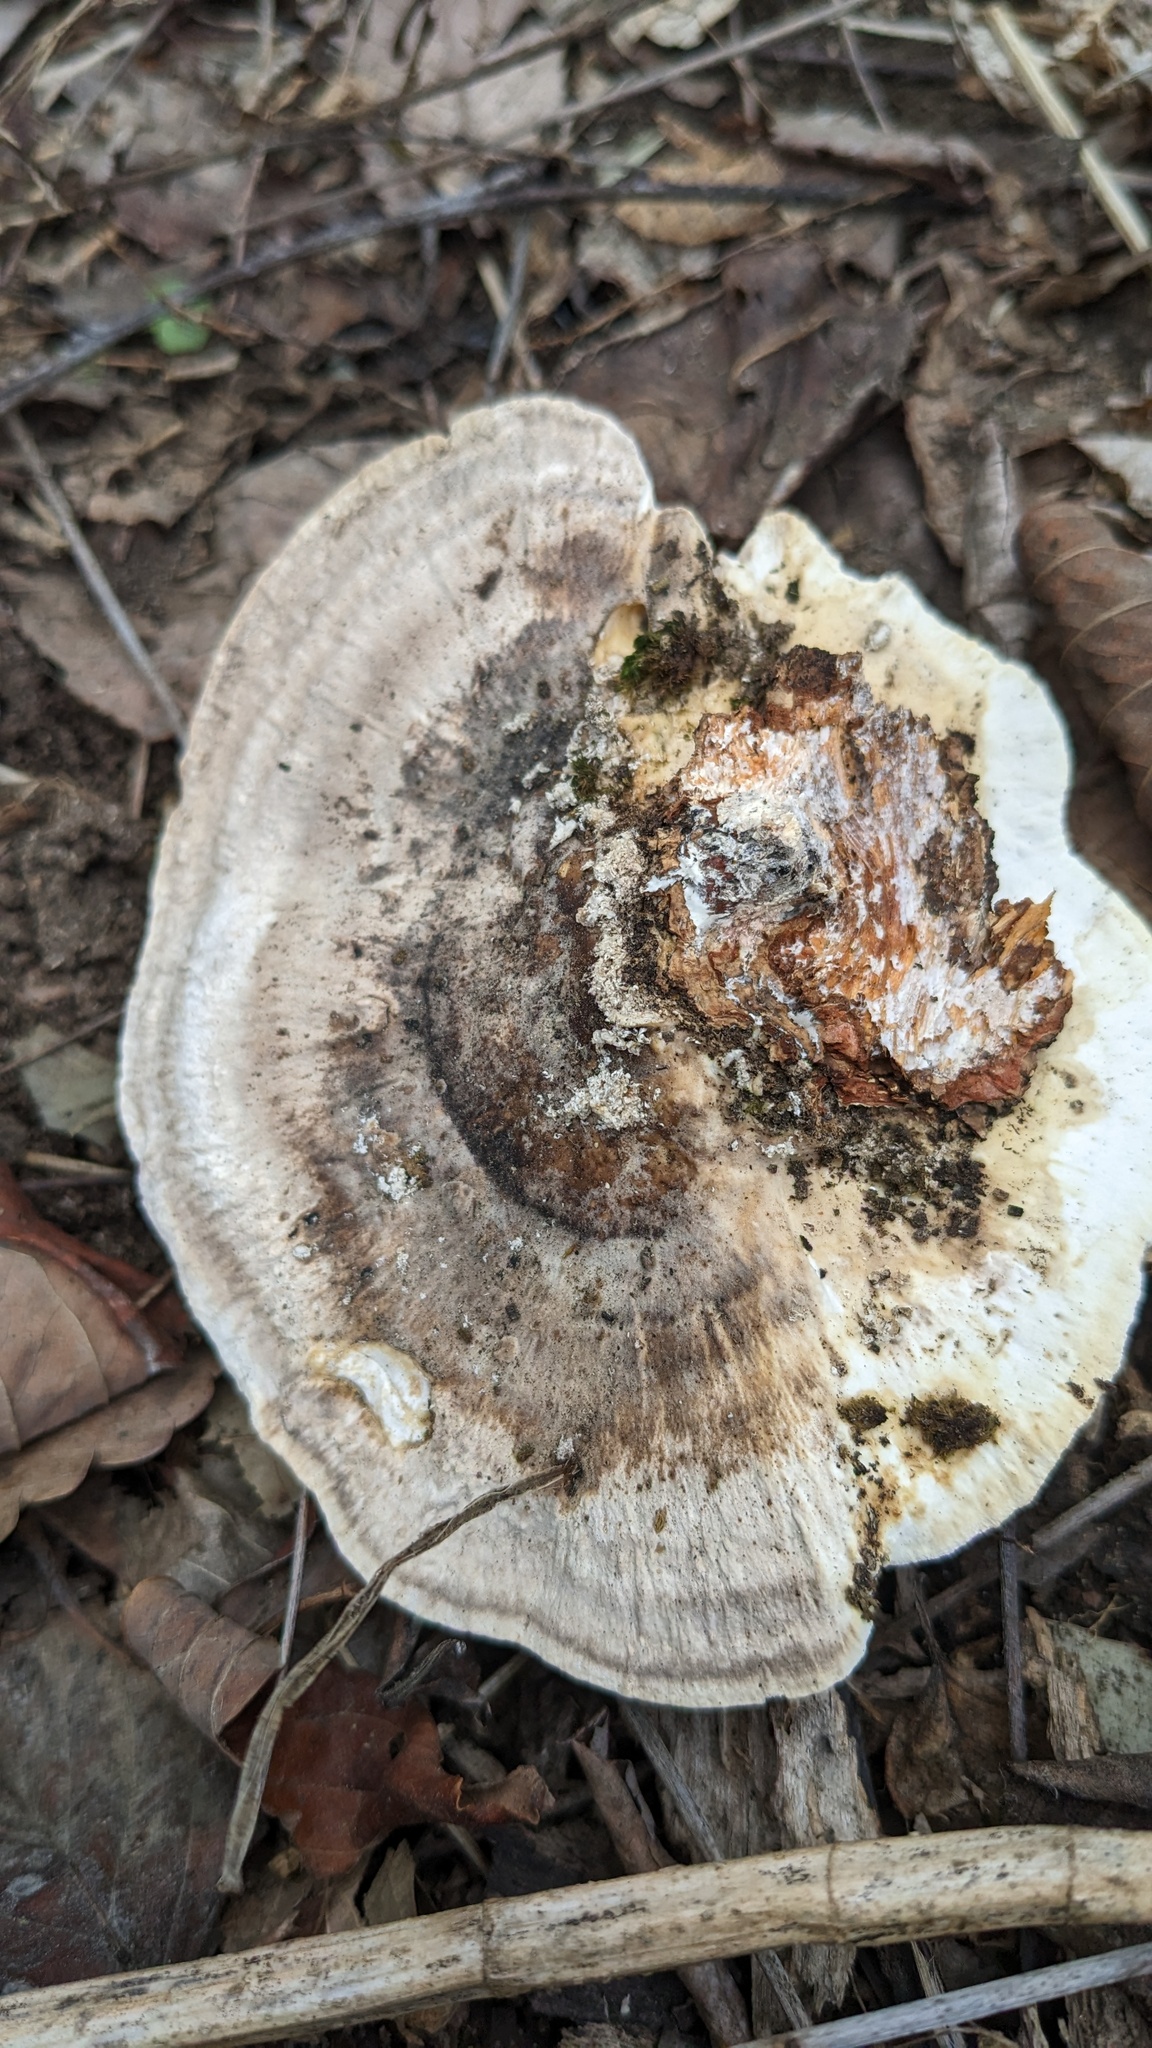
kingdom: Fungi
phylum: Basidiomycota
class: Agaricomycetes
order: Polyporales
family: Polyporaceae
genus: Trametes
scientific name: Trametes orientalis
